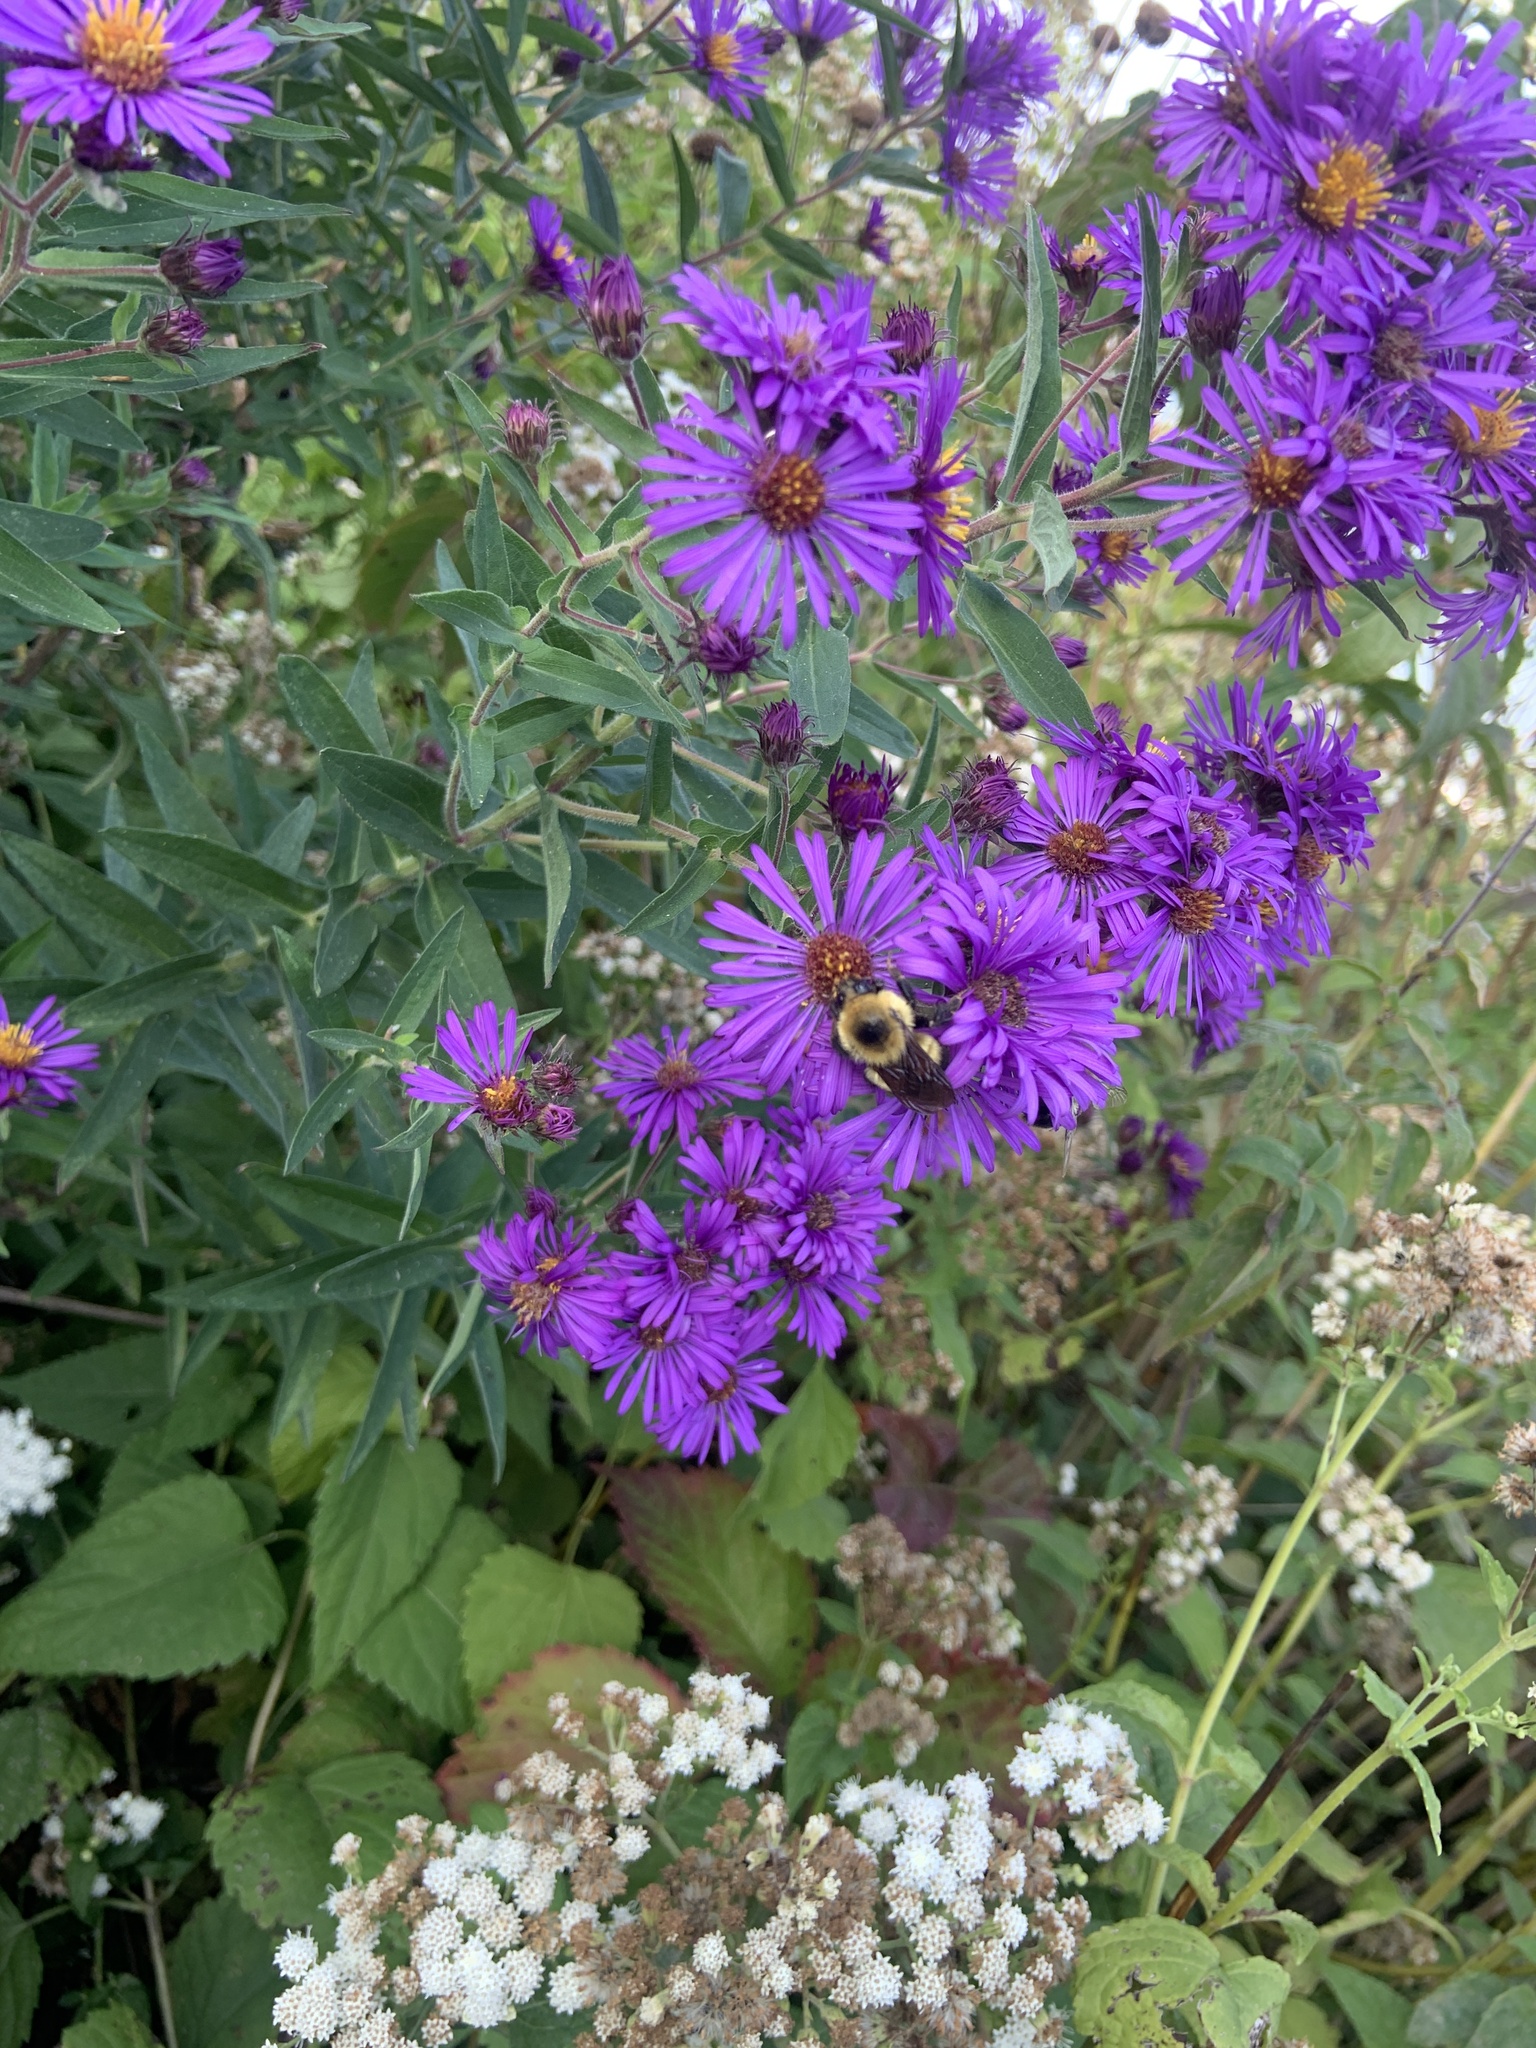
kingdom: Animalia
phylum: Arthropoda
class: Insecta
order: Hymenoptera
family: Apidae
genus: Bombus
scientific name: Bombus rufocinctus
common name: Red-belted bumble bee
